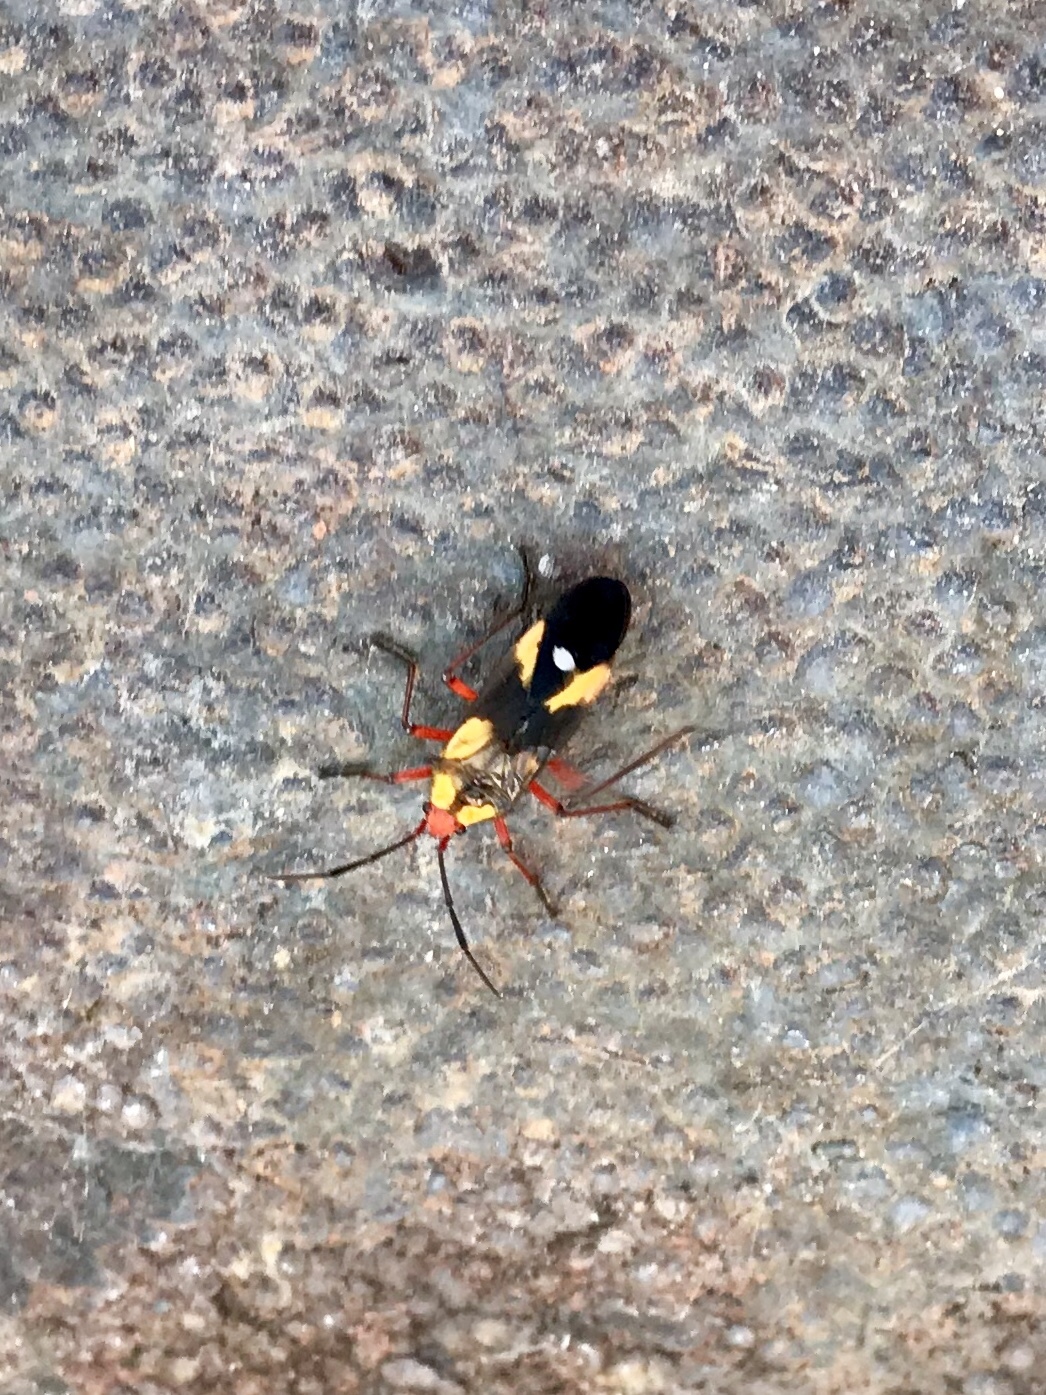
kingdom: Animalia
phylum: Arthropoda
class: Insecta
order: Hemiptera
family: Lygaeidae
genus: Oncopeltus
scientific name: Oncopeltus guttaloides
